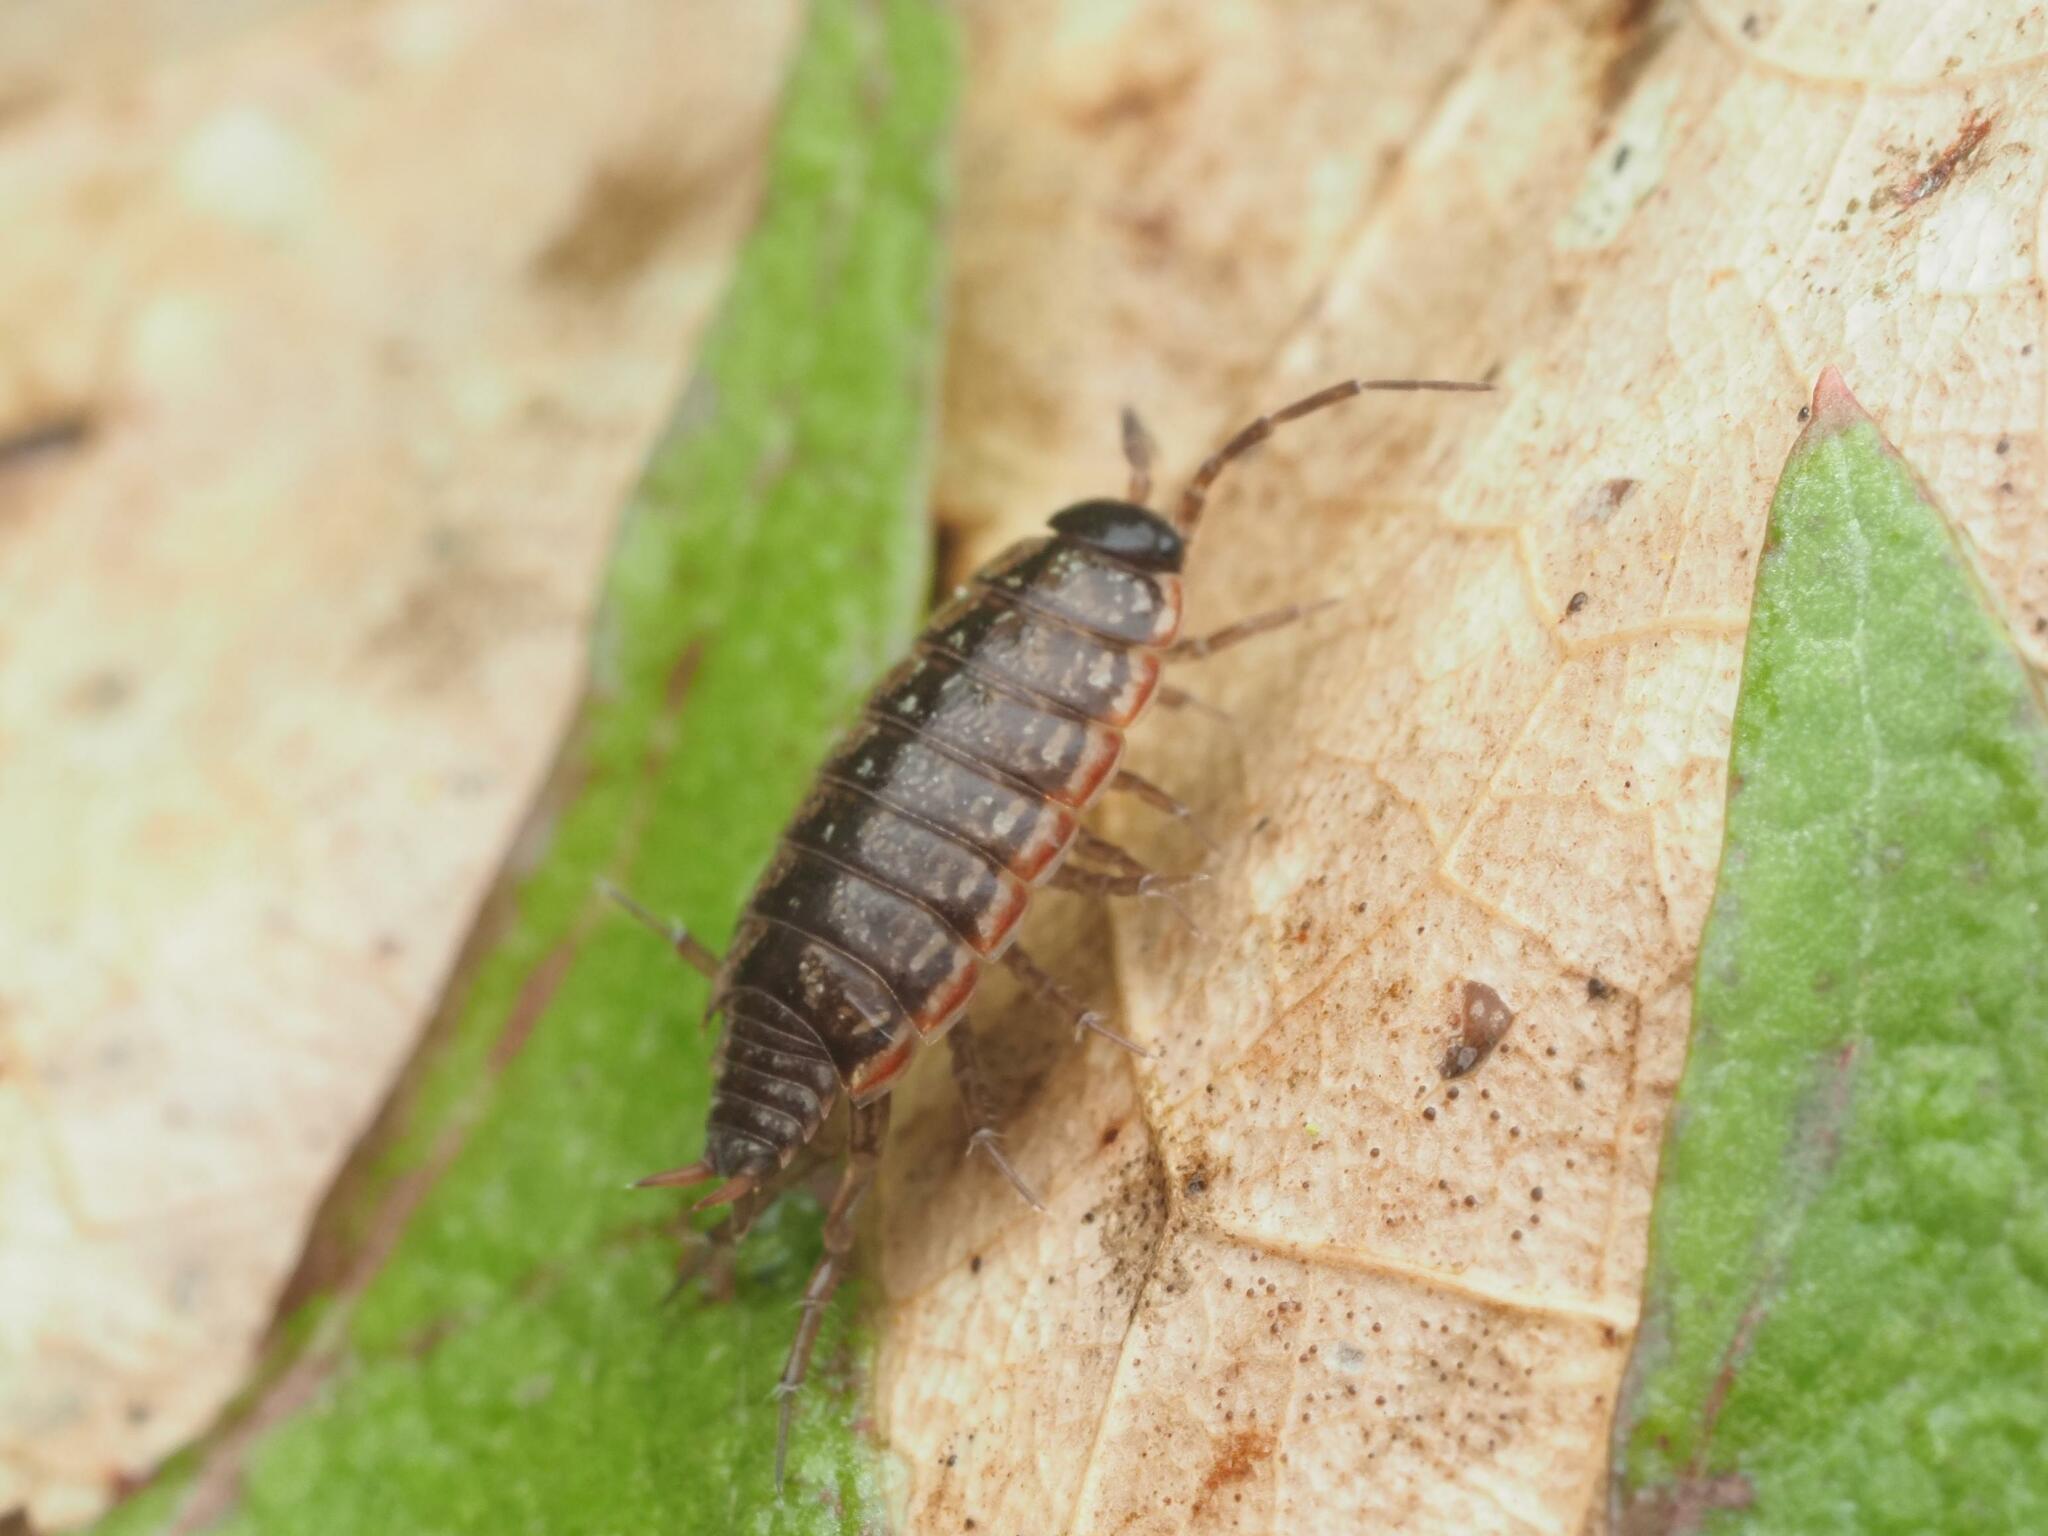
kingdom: Animalia
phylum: Arthropoda
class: Malacostraca
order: Isopoda
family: Philosciidae
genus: Philoscia
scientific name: Philoscia muscorum
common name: Common striped woodlouse
